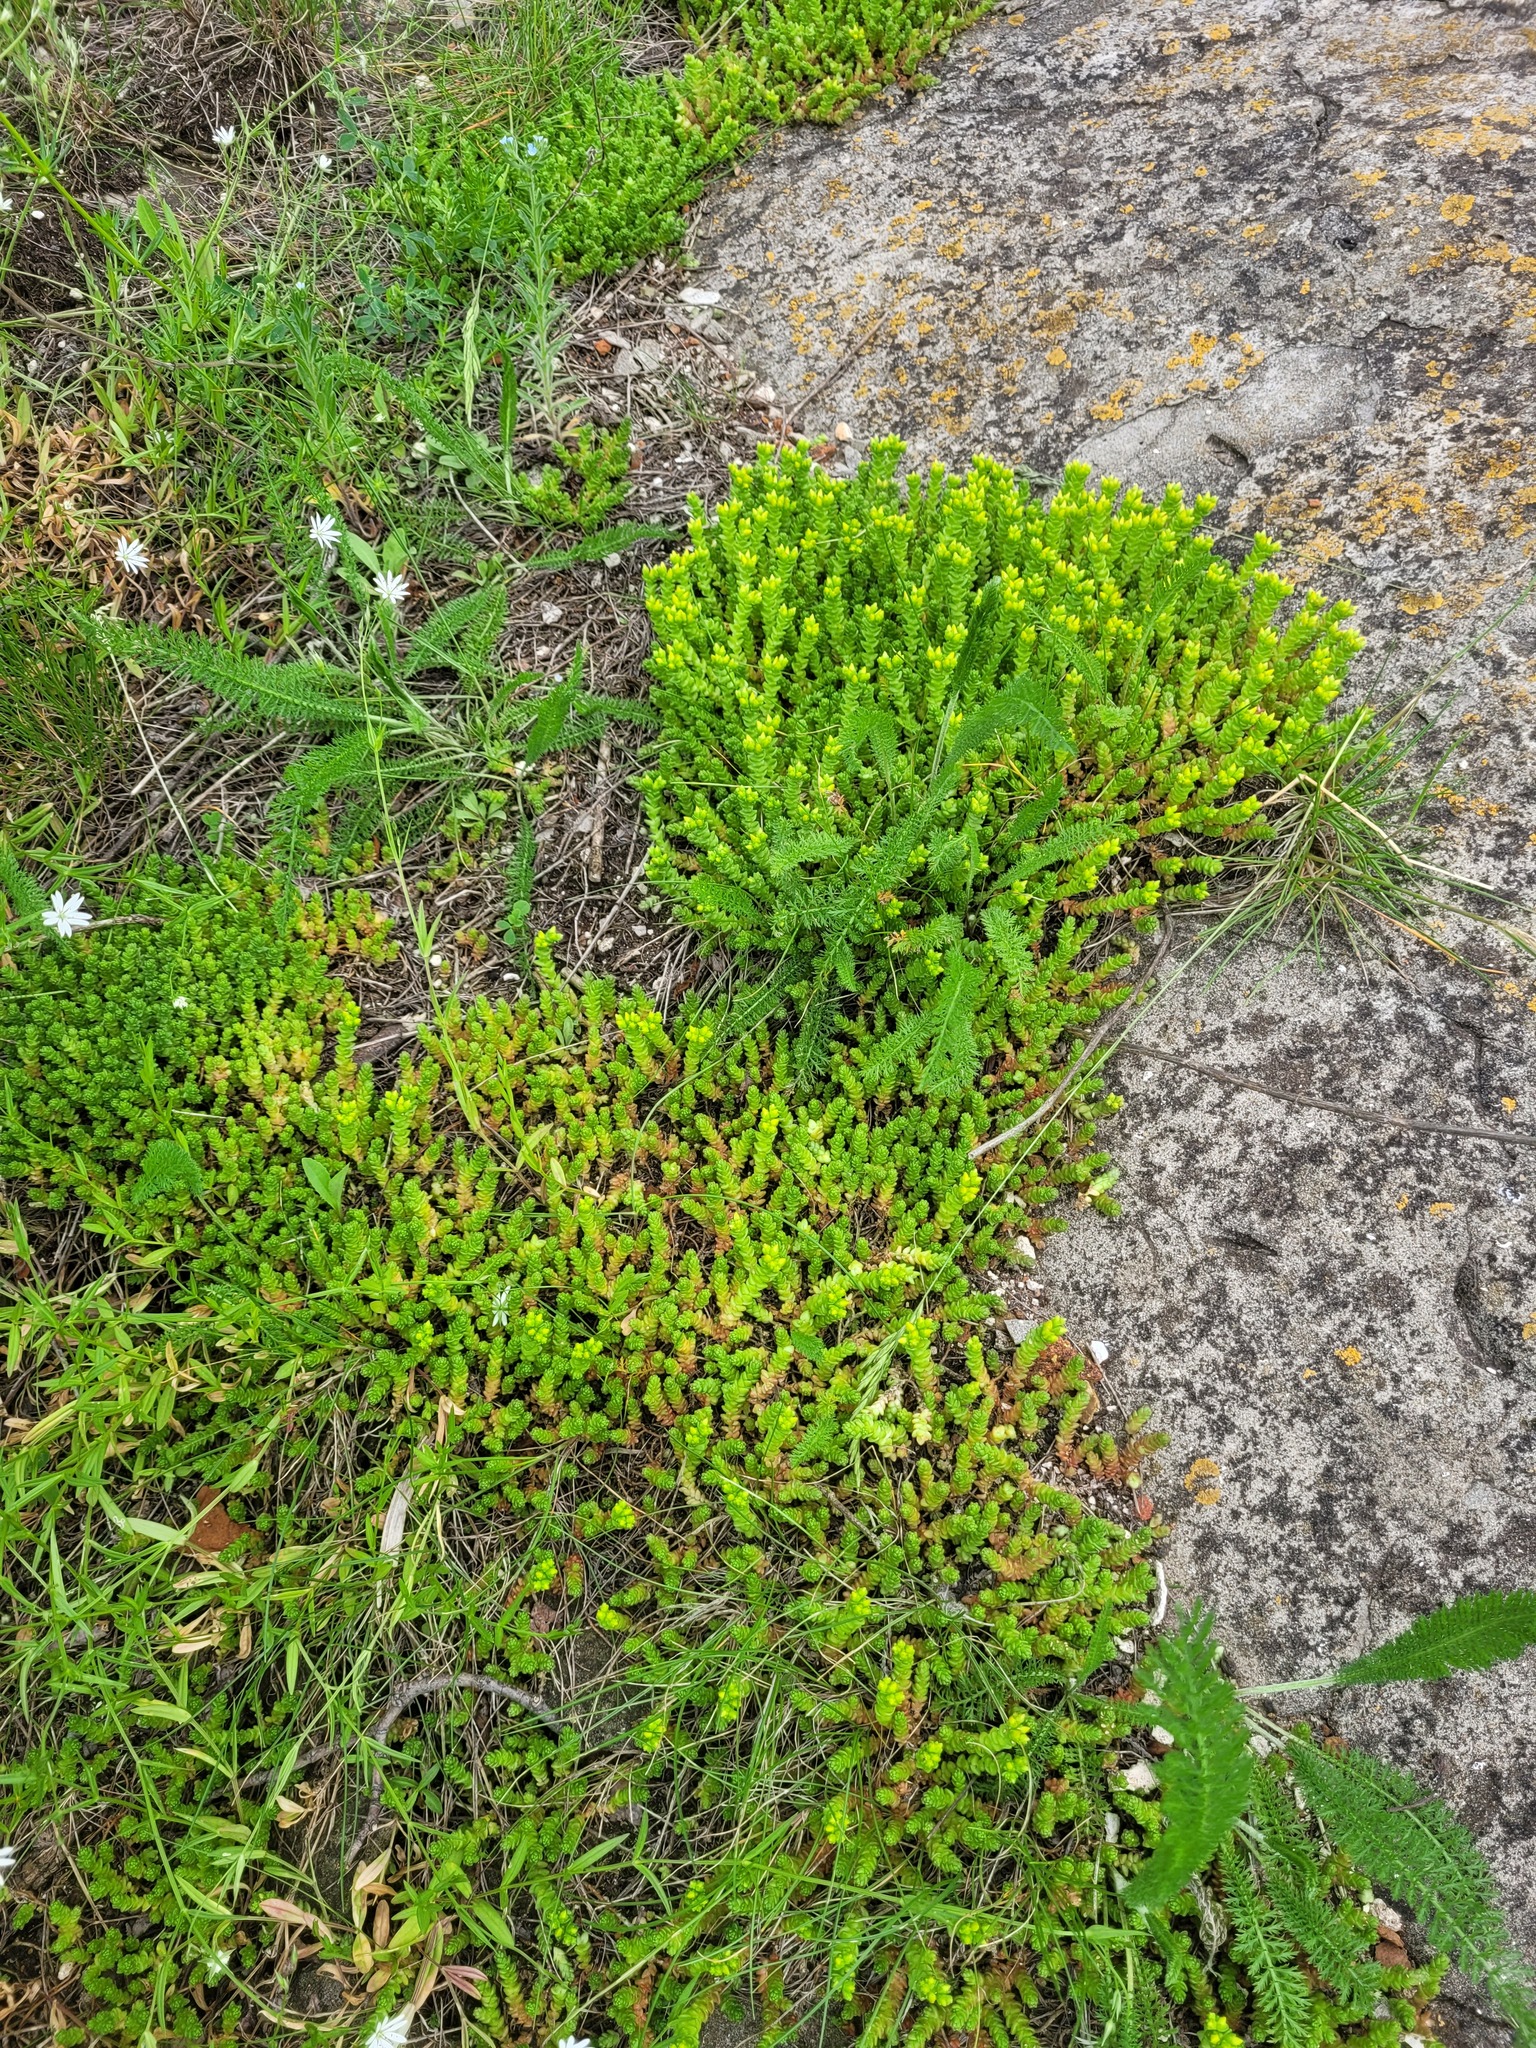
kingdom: Plantae
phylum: Tracheophyta
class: Magnoliopsida
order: Saxifragales
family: Crassulaceae
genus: Sedum
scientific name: Sedum acre
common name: Biting stonecrop
